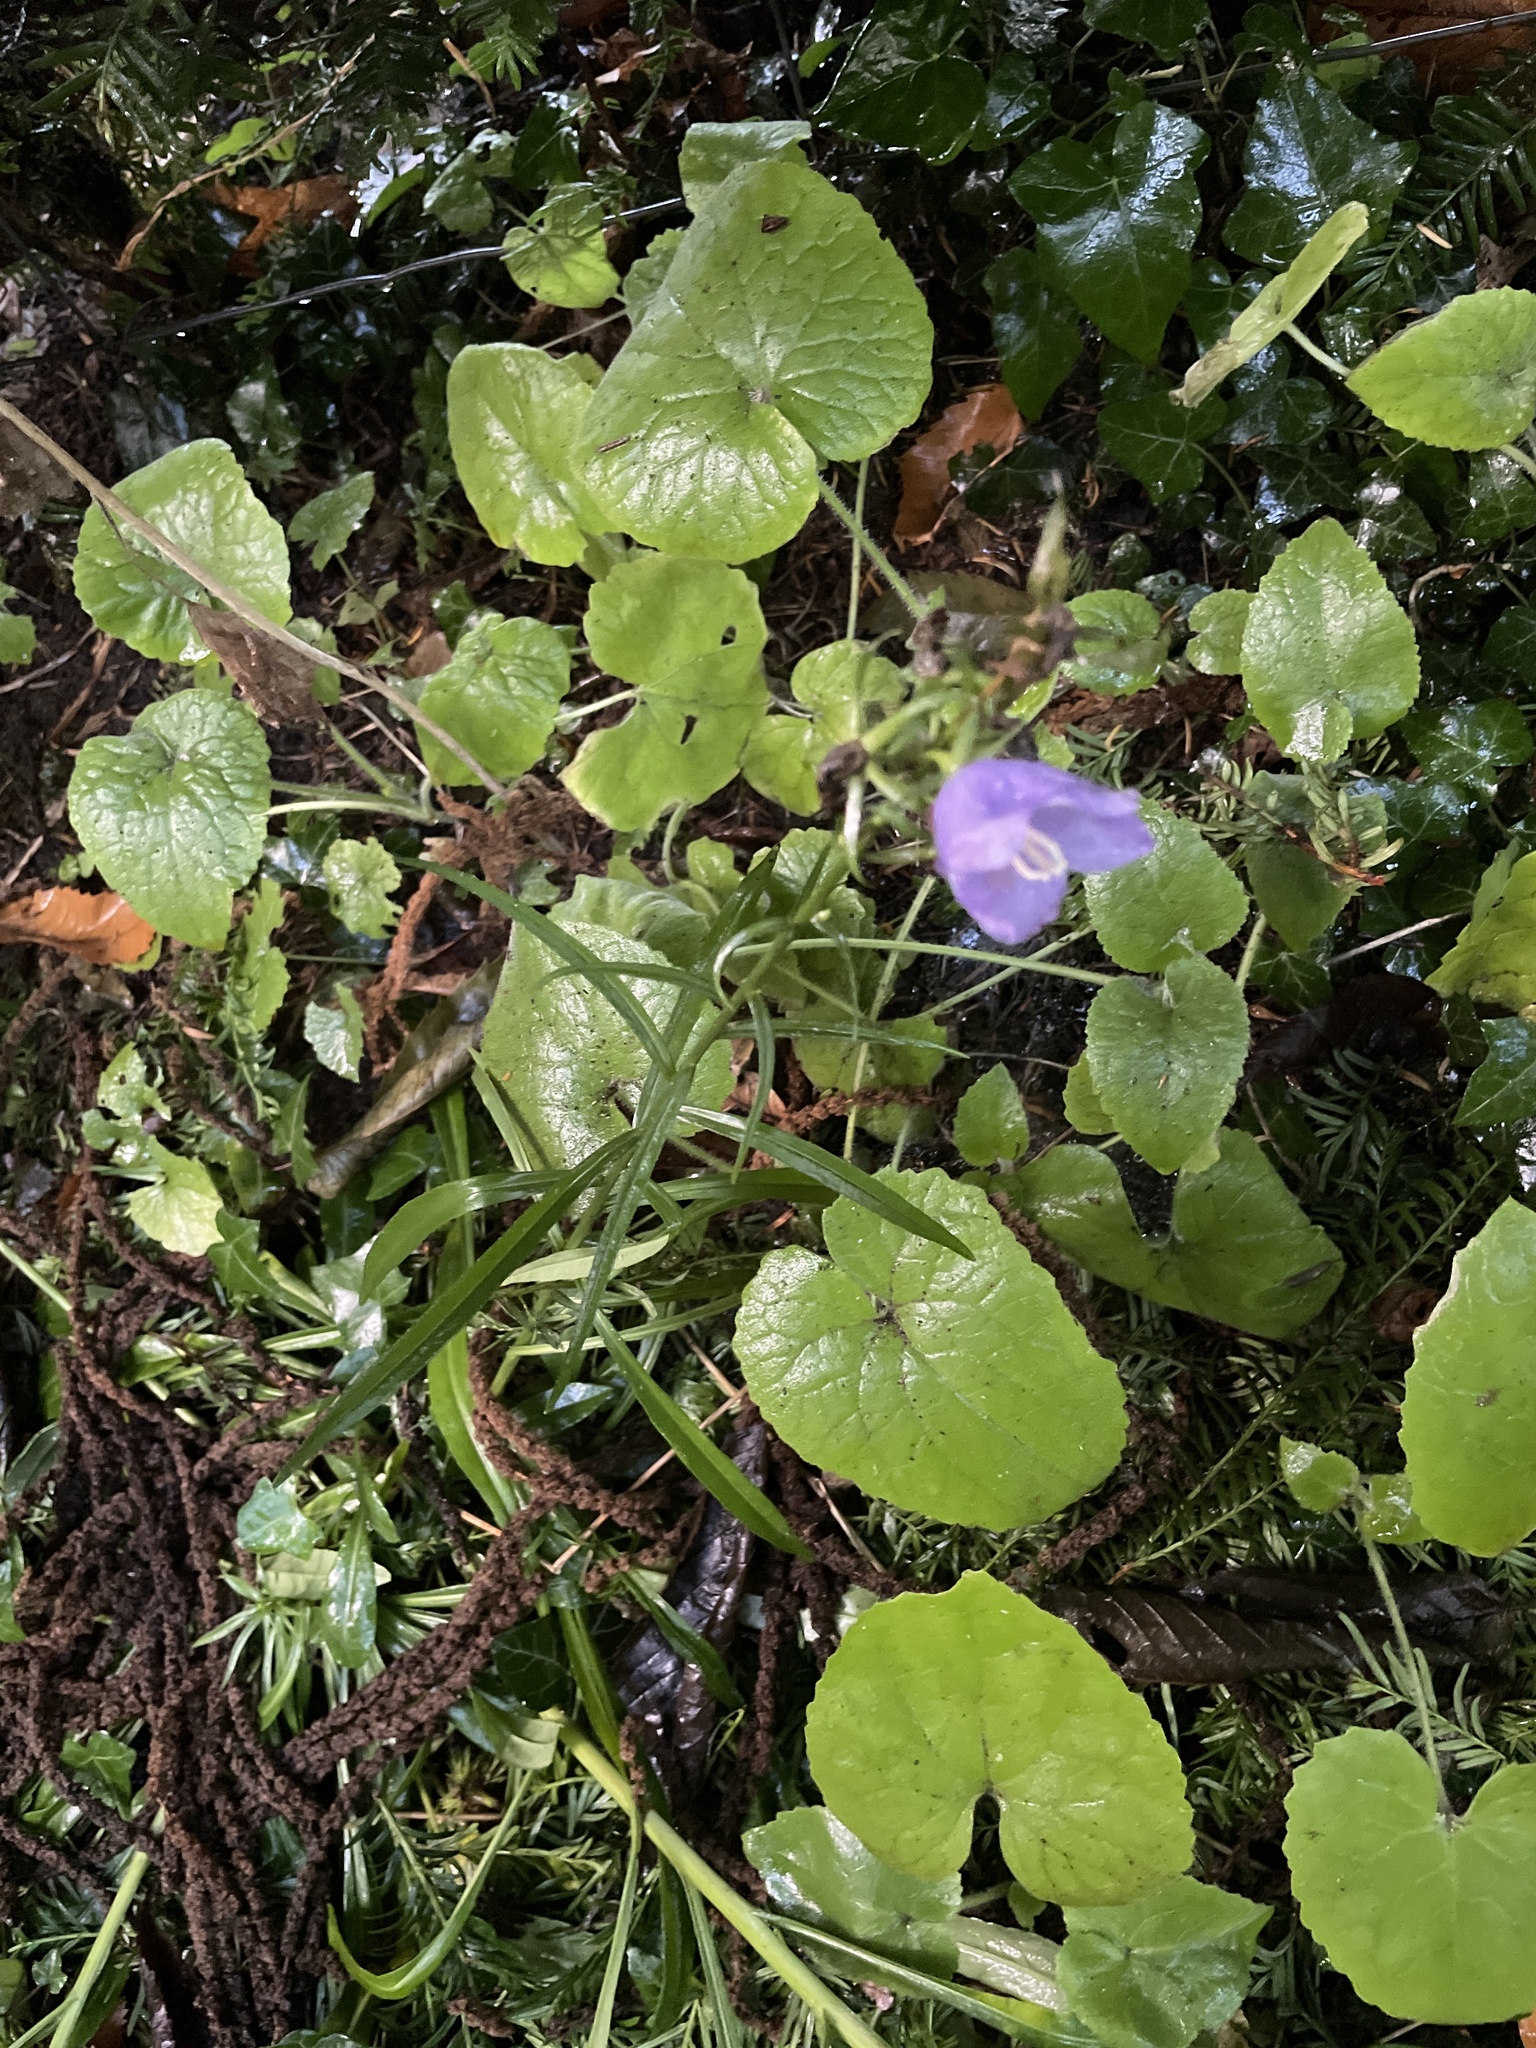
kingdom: Plantae
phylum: Tracheophyta
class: Magnoliopsida
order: Asterales
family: Campanulaceae
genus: Campanula
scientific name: Campanula persicifolia
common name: Peach-leaved bellflower
